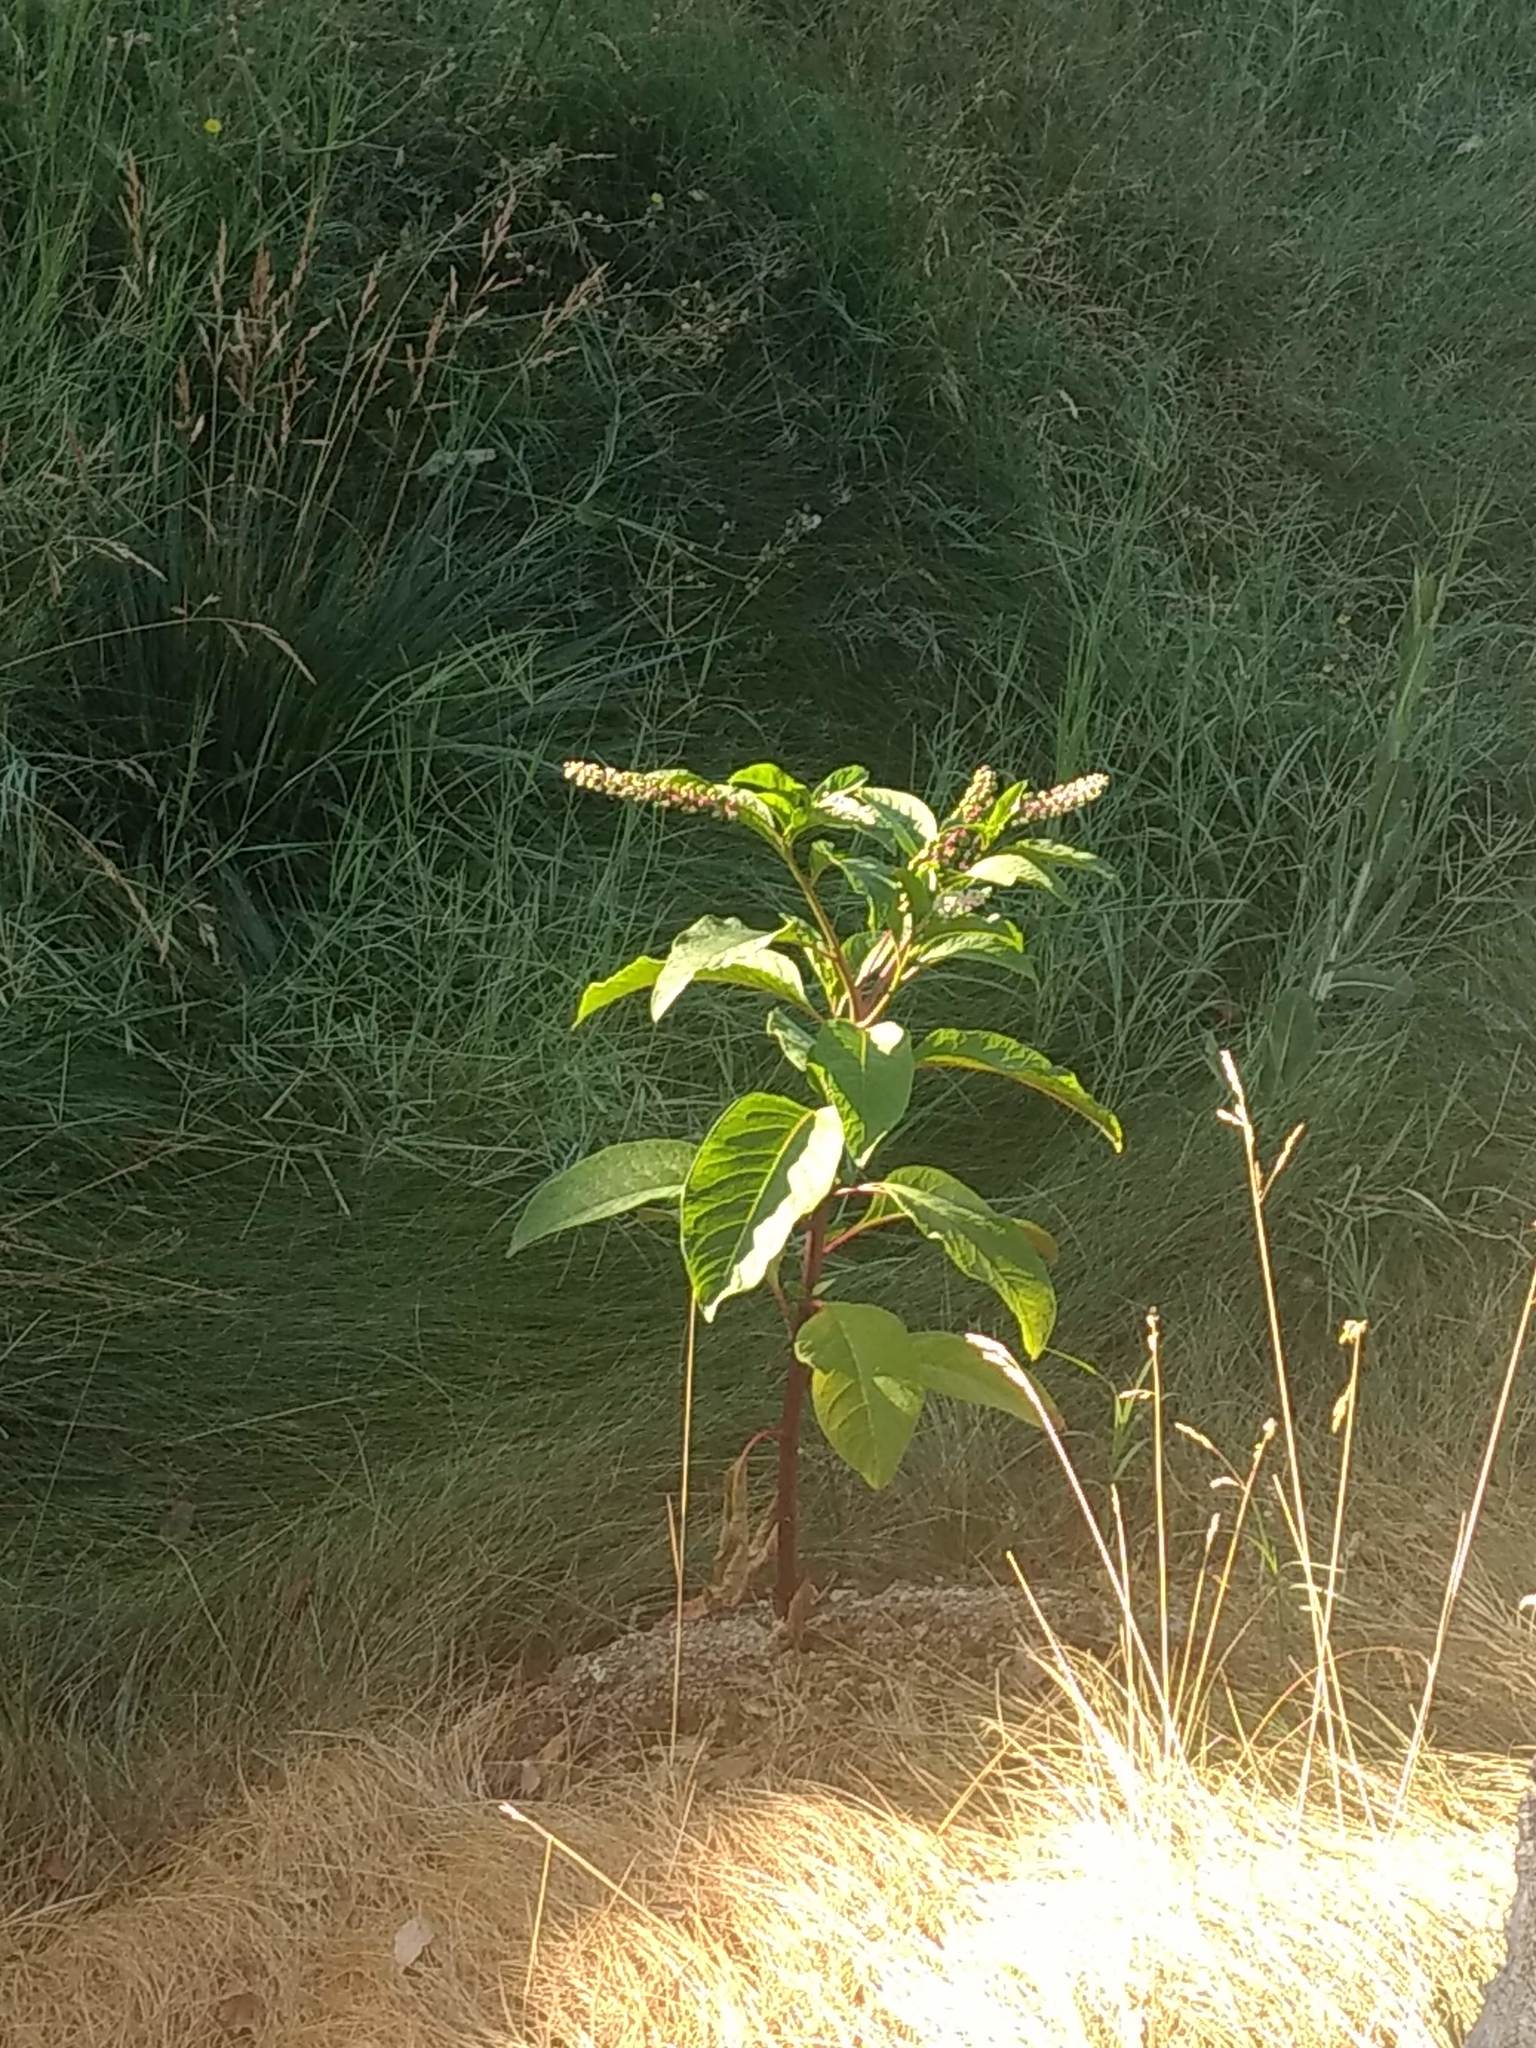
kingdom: Plantae
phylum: Tracheophyta
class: Magnoliopsida
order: Caryophyllales
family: Phytolaccaceae
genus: Phytolacca
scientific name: Phytolacca americana
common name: American pokeweed
